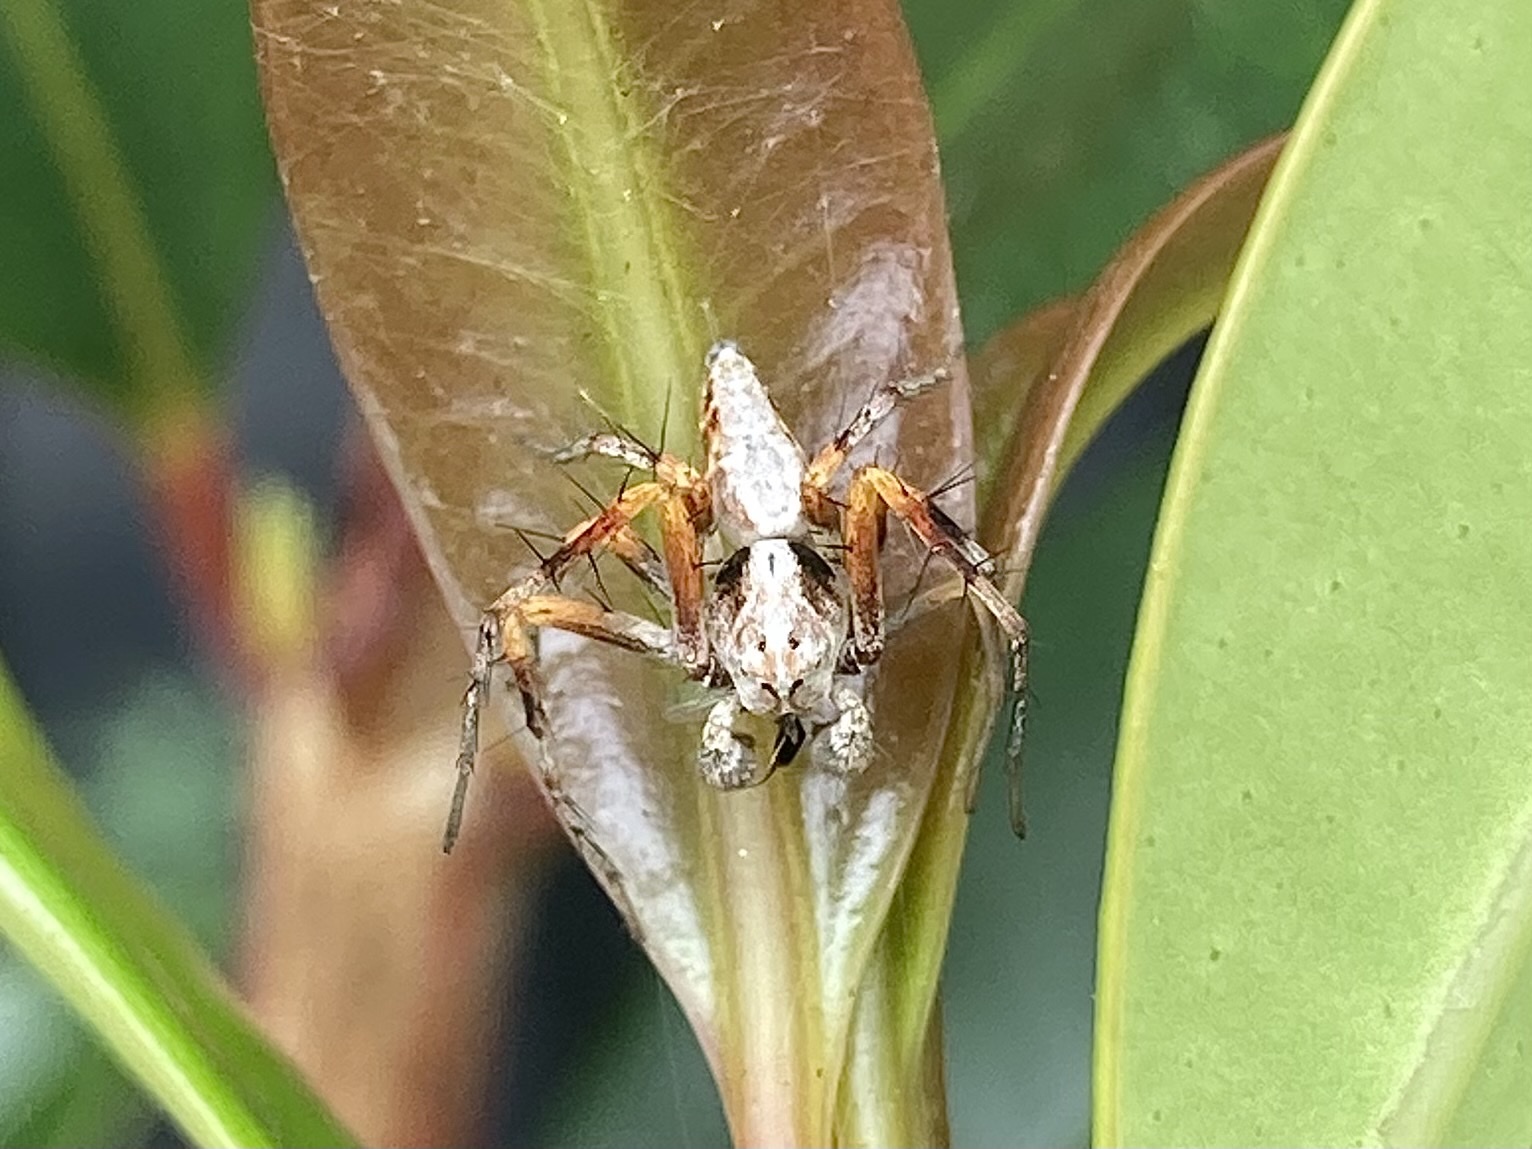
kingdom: Animalia
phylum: Arthropoda
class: Arachnida
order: Araneae
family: Oxyopidae
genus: Oxyopes
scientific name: Oxyopes variabilis
